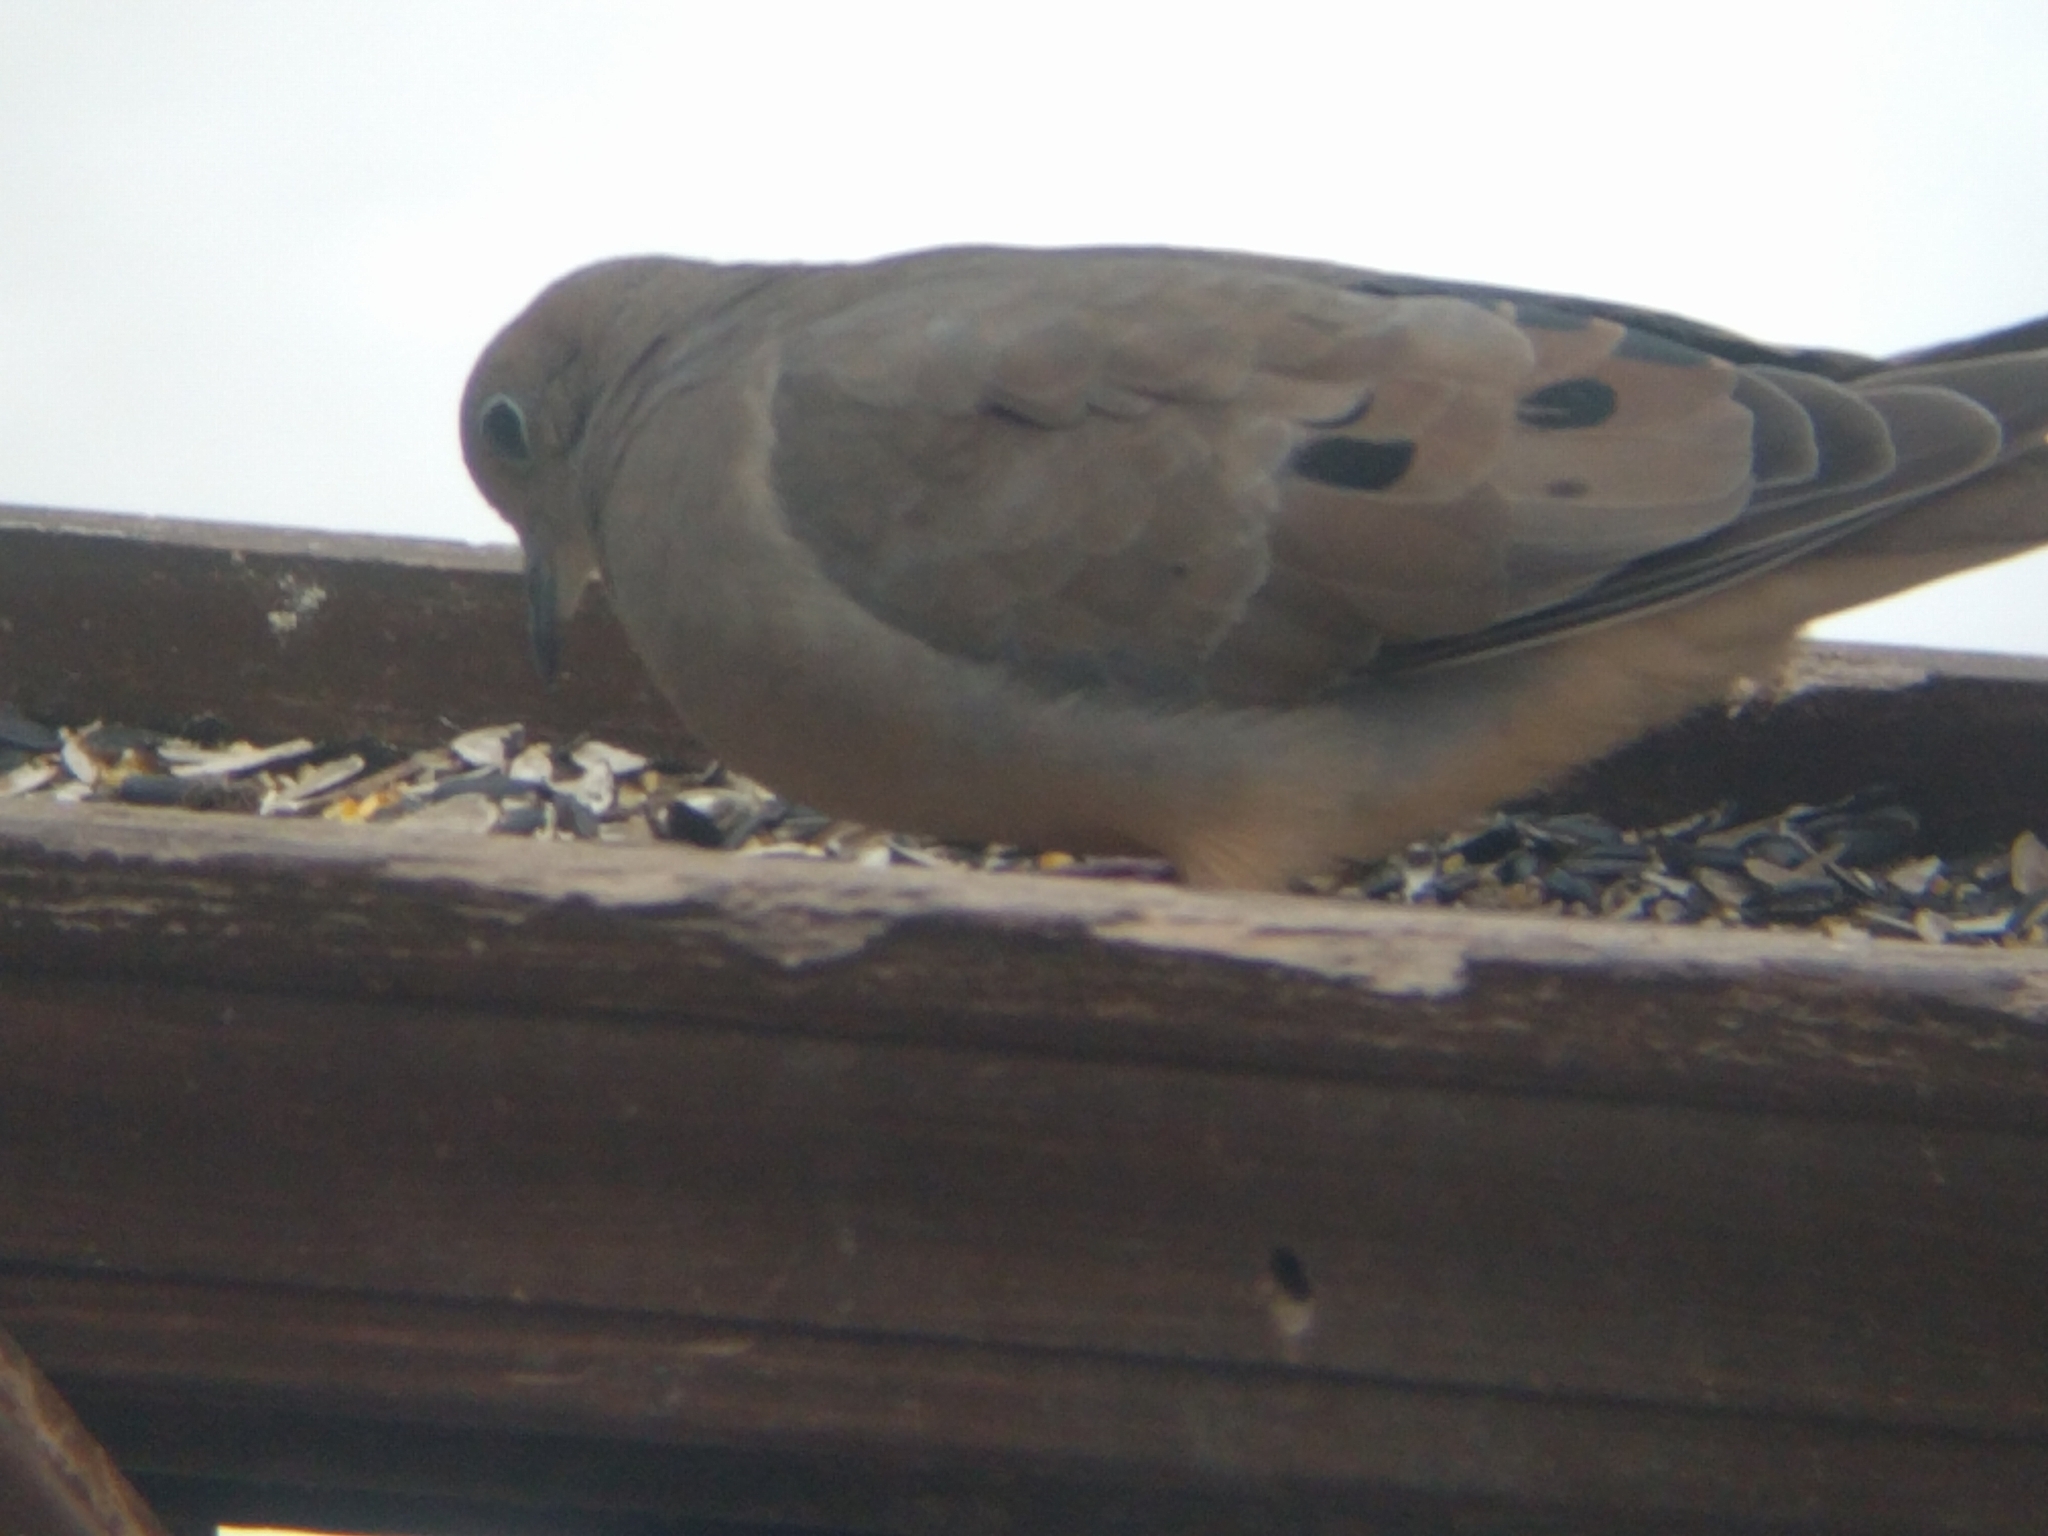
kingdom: Animalia
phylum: Chordata
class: Aves
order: Columbiformes
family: Columbidae
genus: Zenaida
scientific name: Zenaida macroura
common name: Mourning dove
